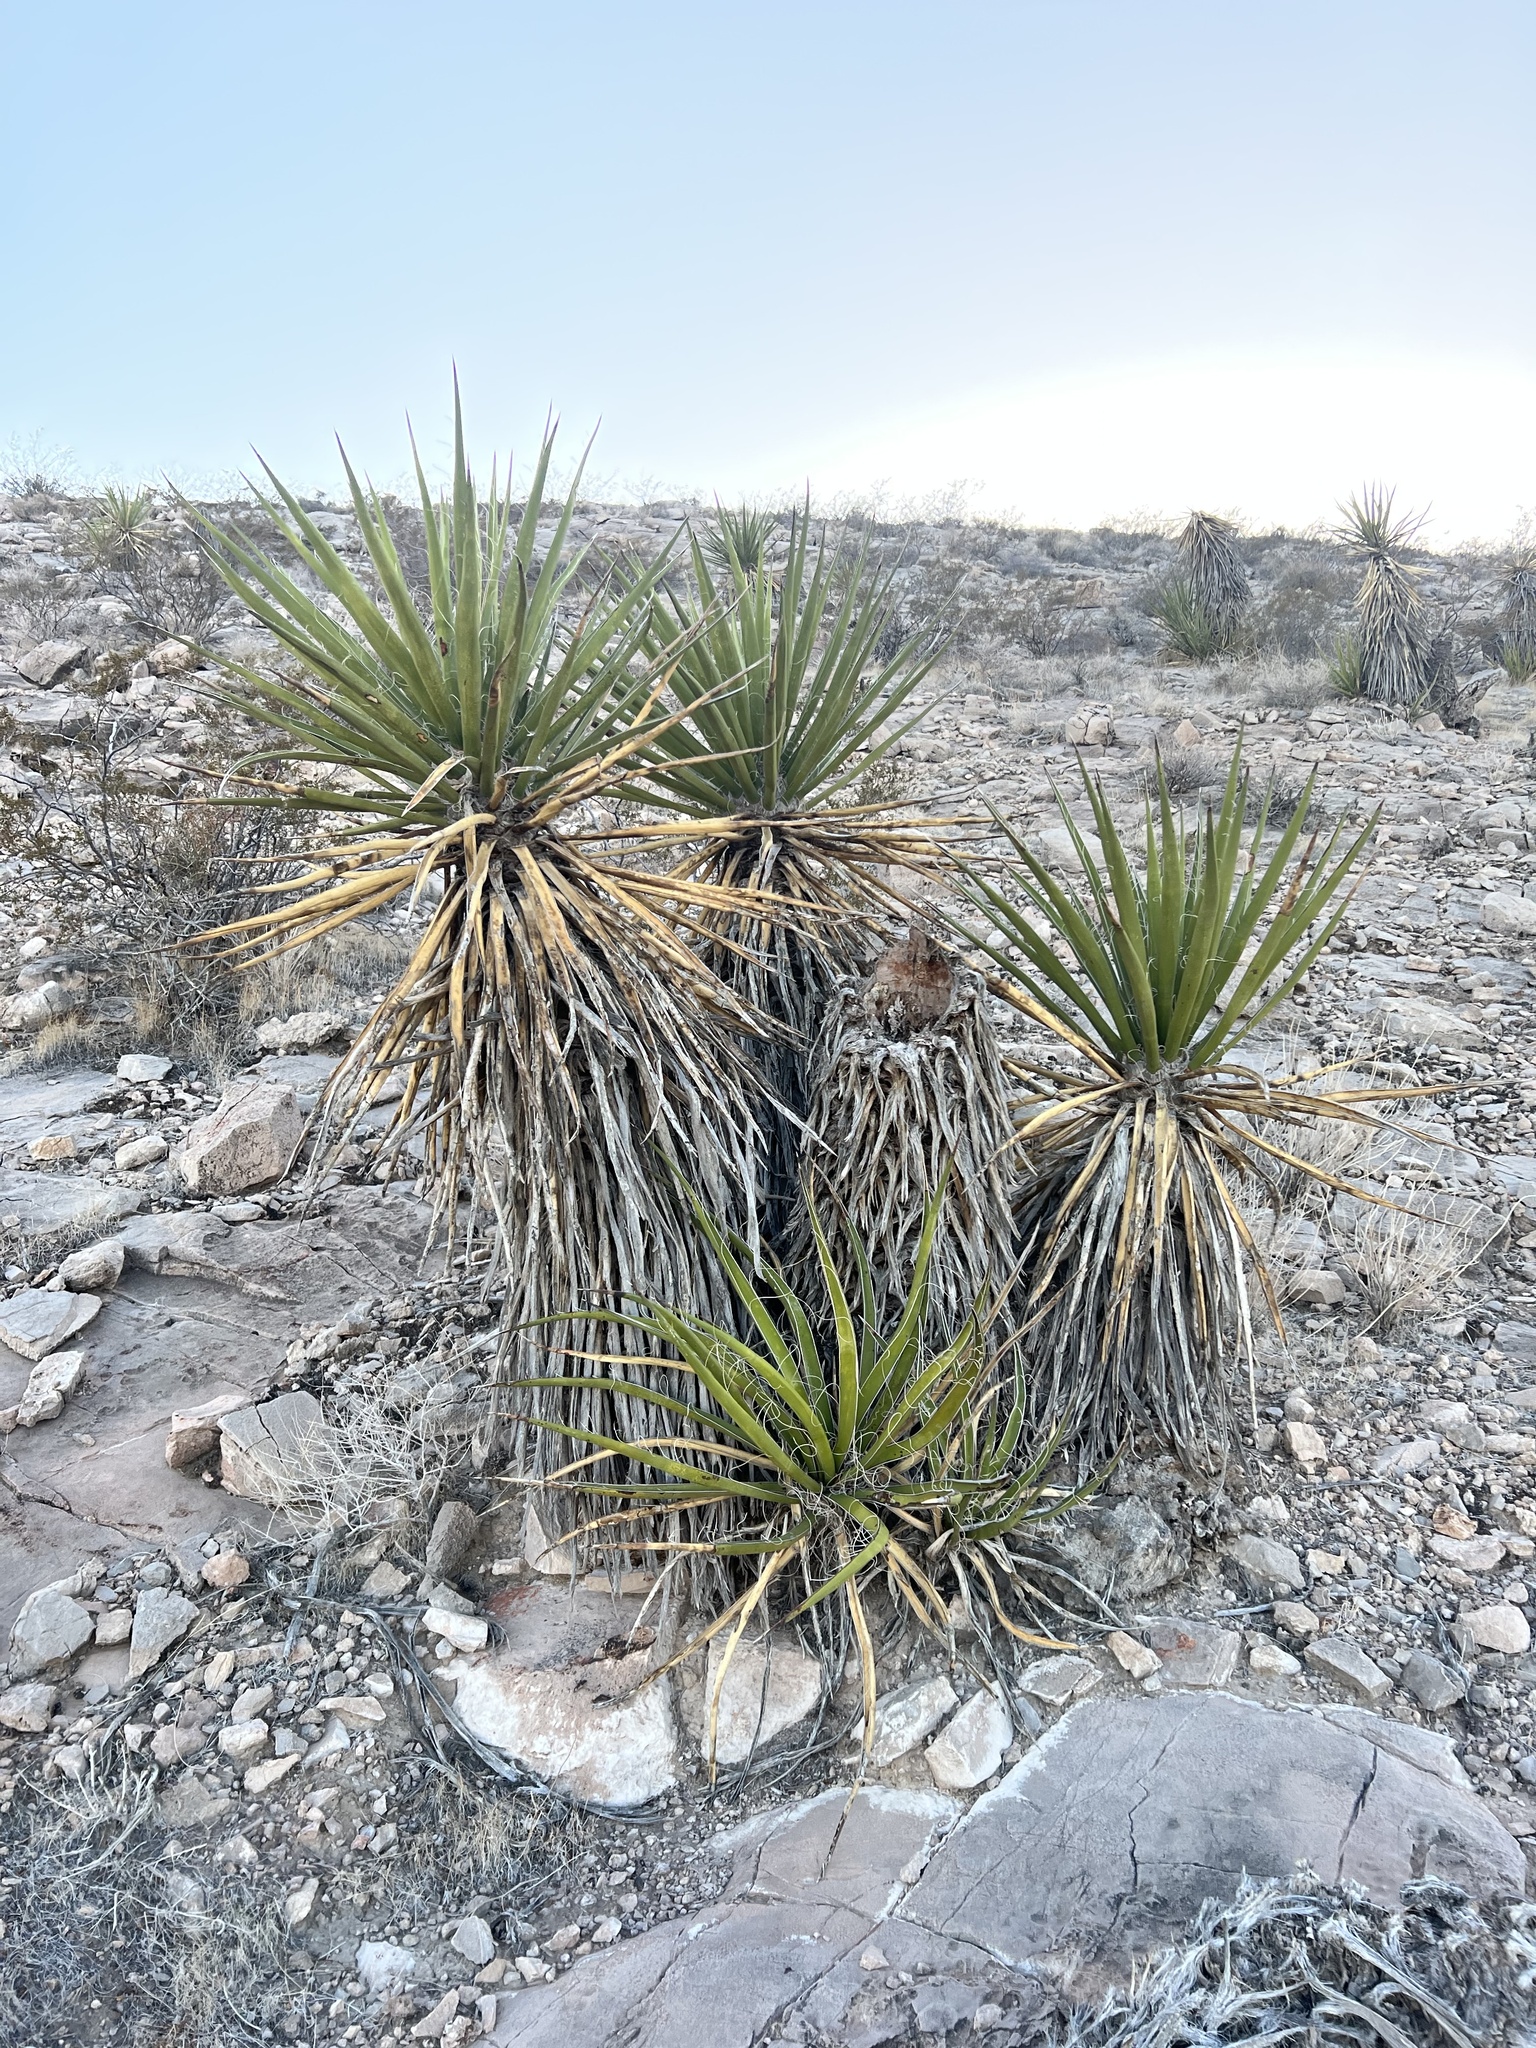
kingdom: Plantae
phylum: Tracheophyta
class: Liliopsida
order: Asparagales
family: Asparagaceae
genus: Yucca
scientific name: Yucca schidigera
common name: Mojave yucca
